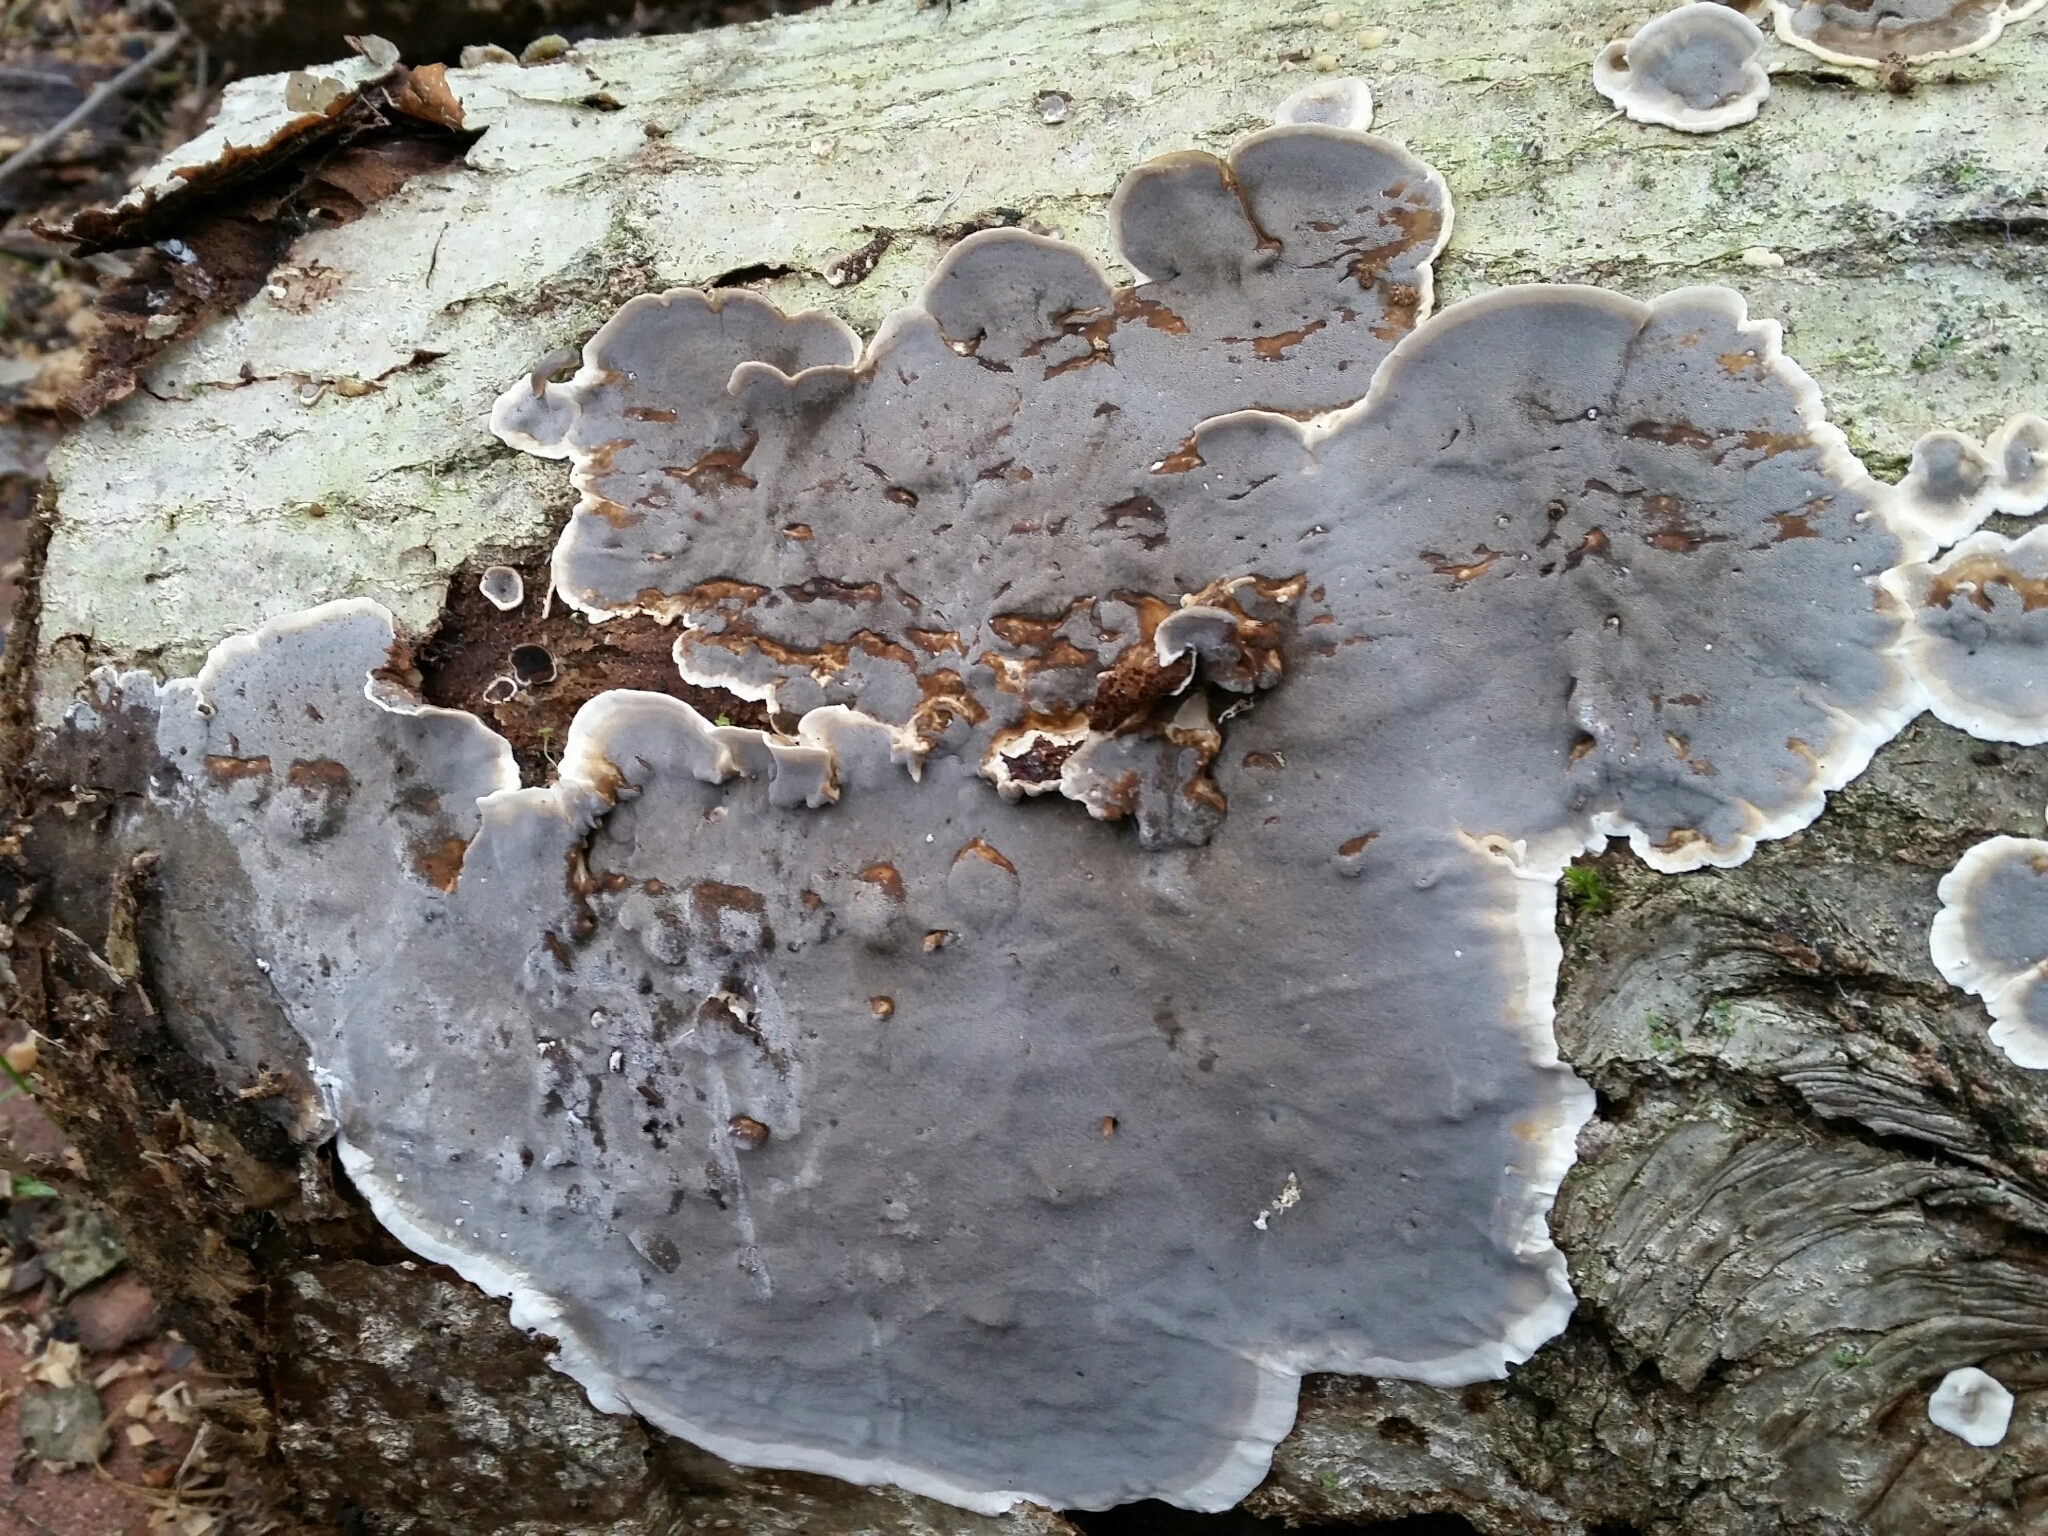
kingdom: Fungi
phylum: Ascomycota
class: Sordariomycetes
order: Xylariales
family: Xylariaceae
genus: Kretzschmaria
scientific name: Kretzschmaria deusta
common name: Brittle cinder
